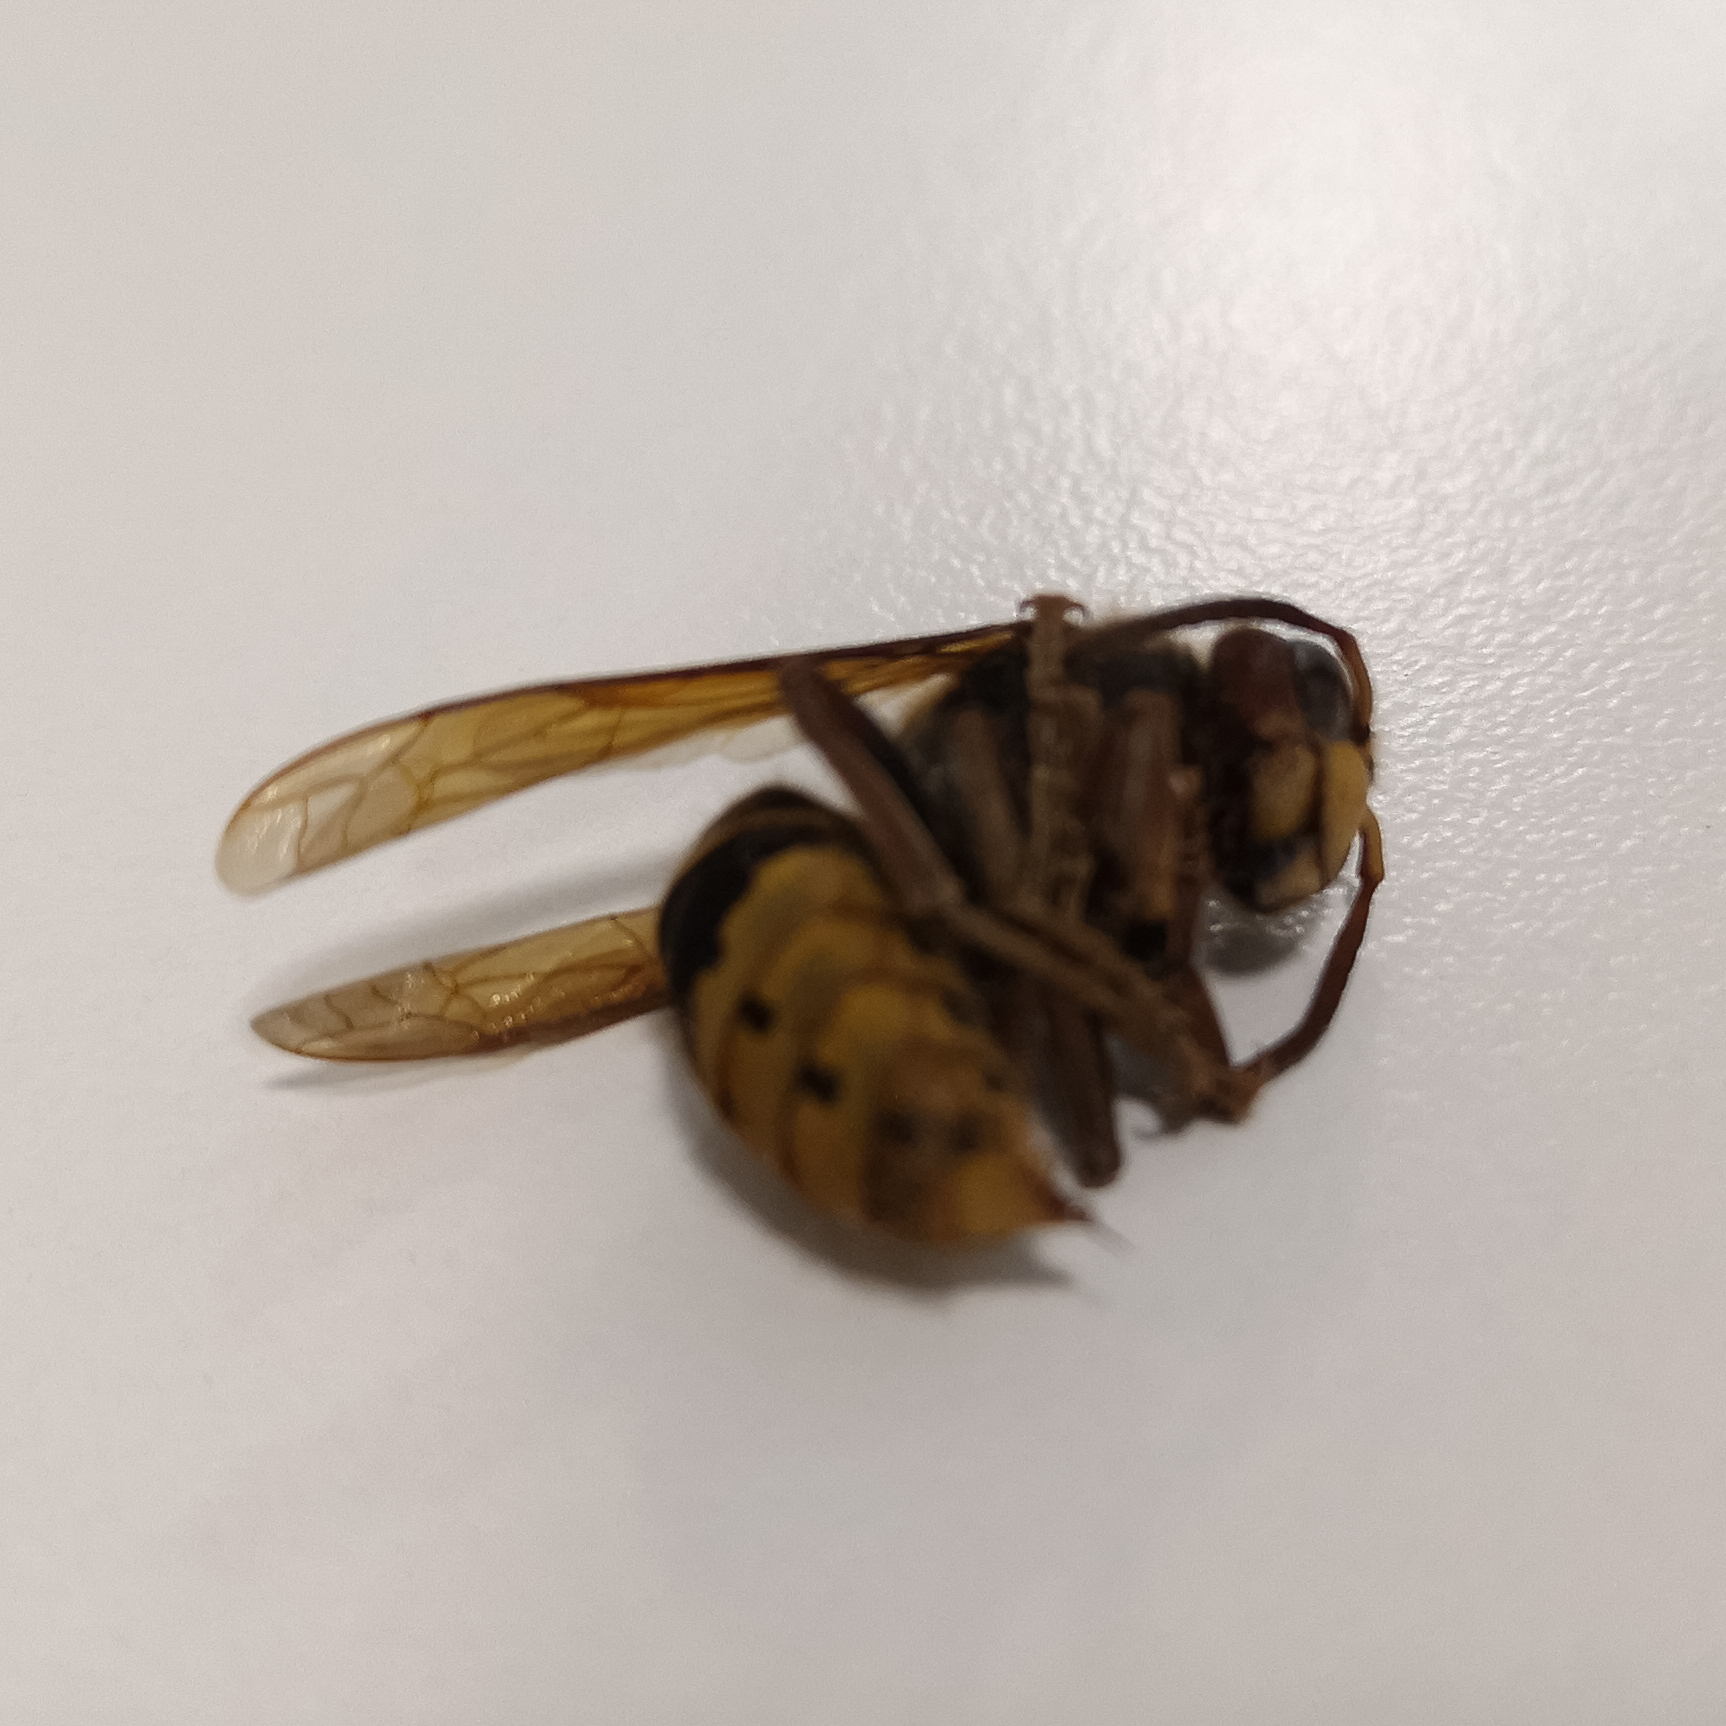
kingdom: Animalia
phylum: Arthropoda
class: Insecta
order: Hymenoptera
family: Vespidae
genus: Vespa
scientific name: Vespa crabro
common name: Hornet
